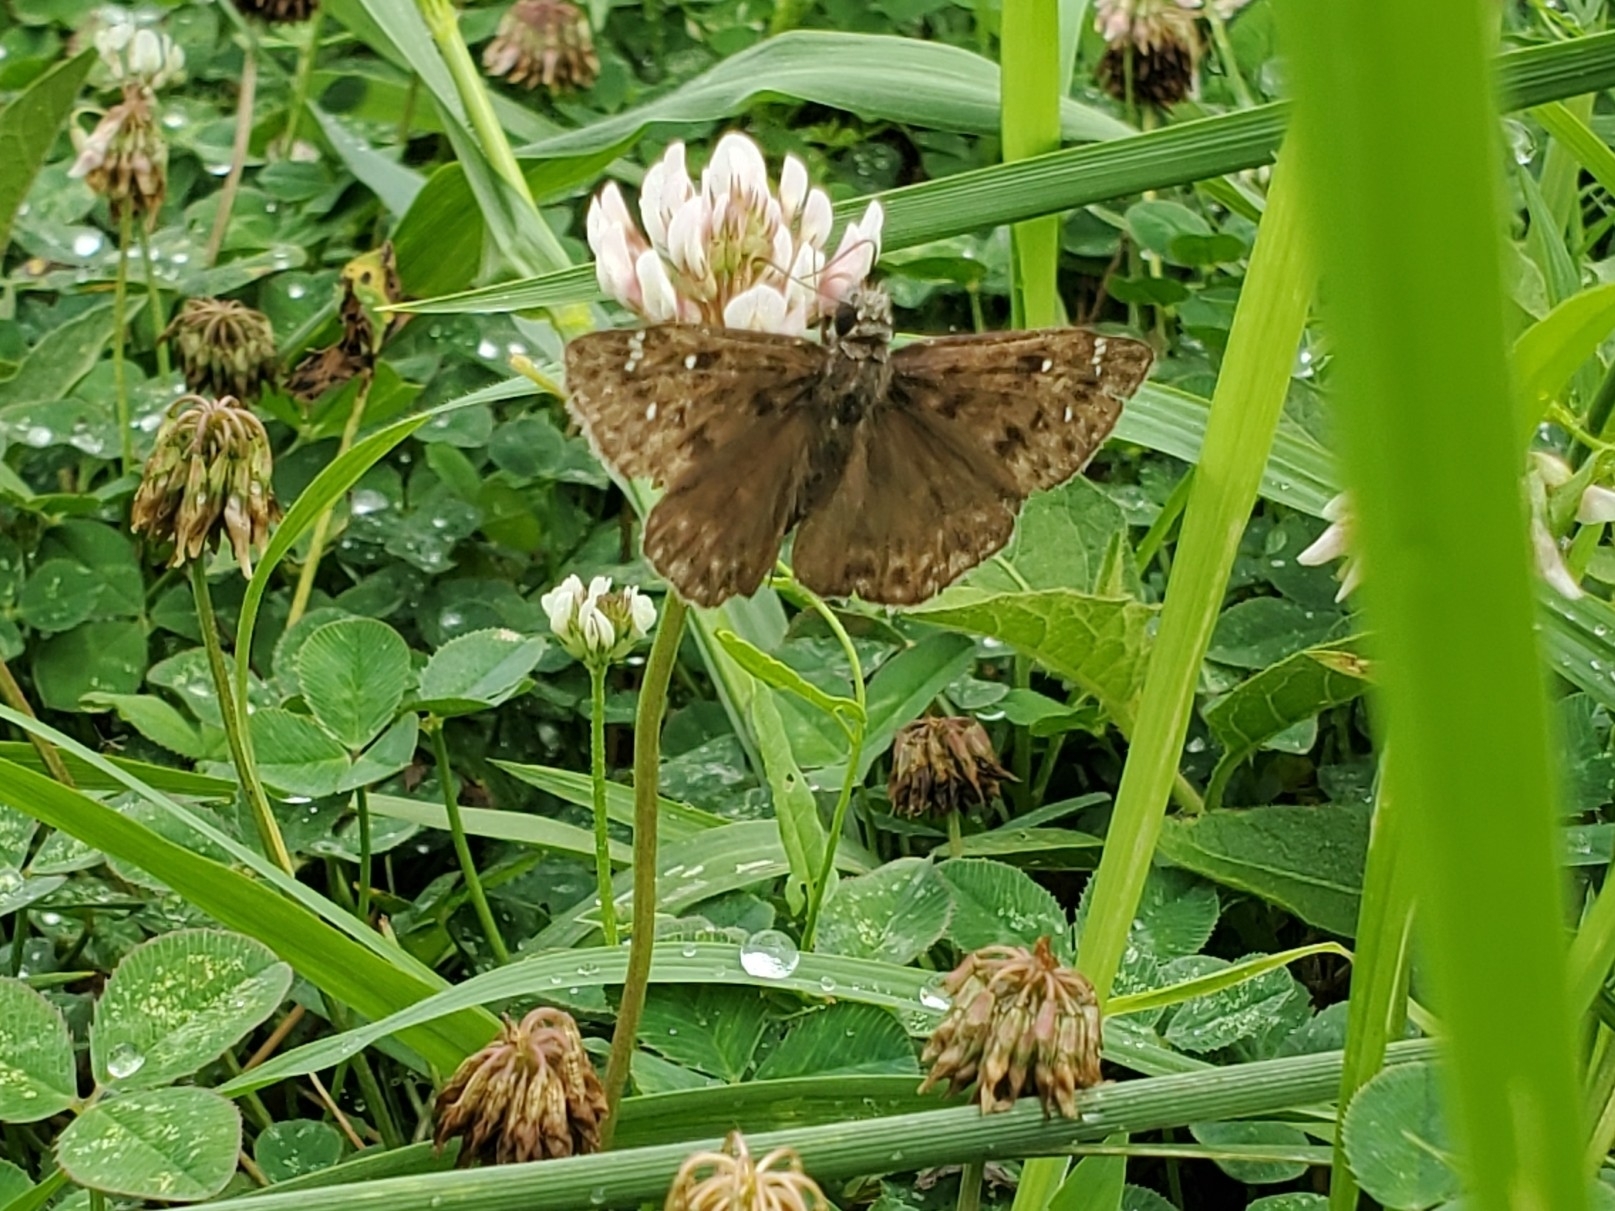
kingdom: Animalia
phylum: Arthropoda
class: Insecta
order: Lepidoptera
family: Hesperiidae
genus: Erynnis
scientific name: Erynnis horatius
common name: Horace's duskywing
